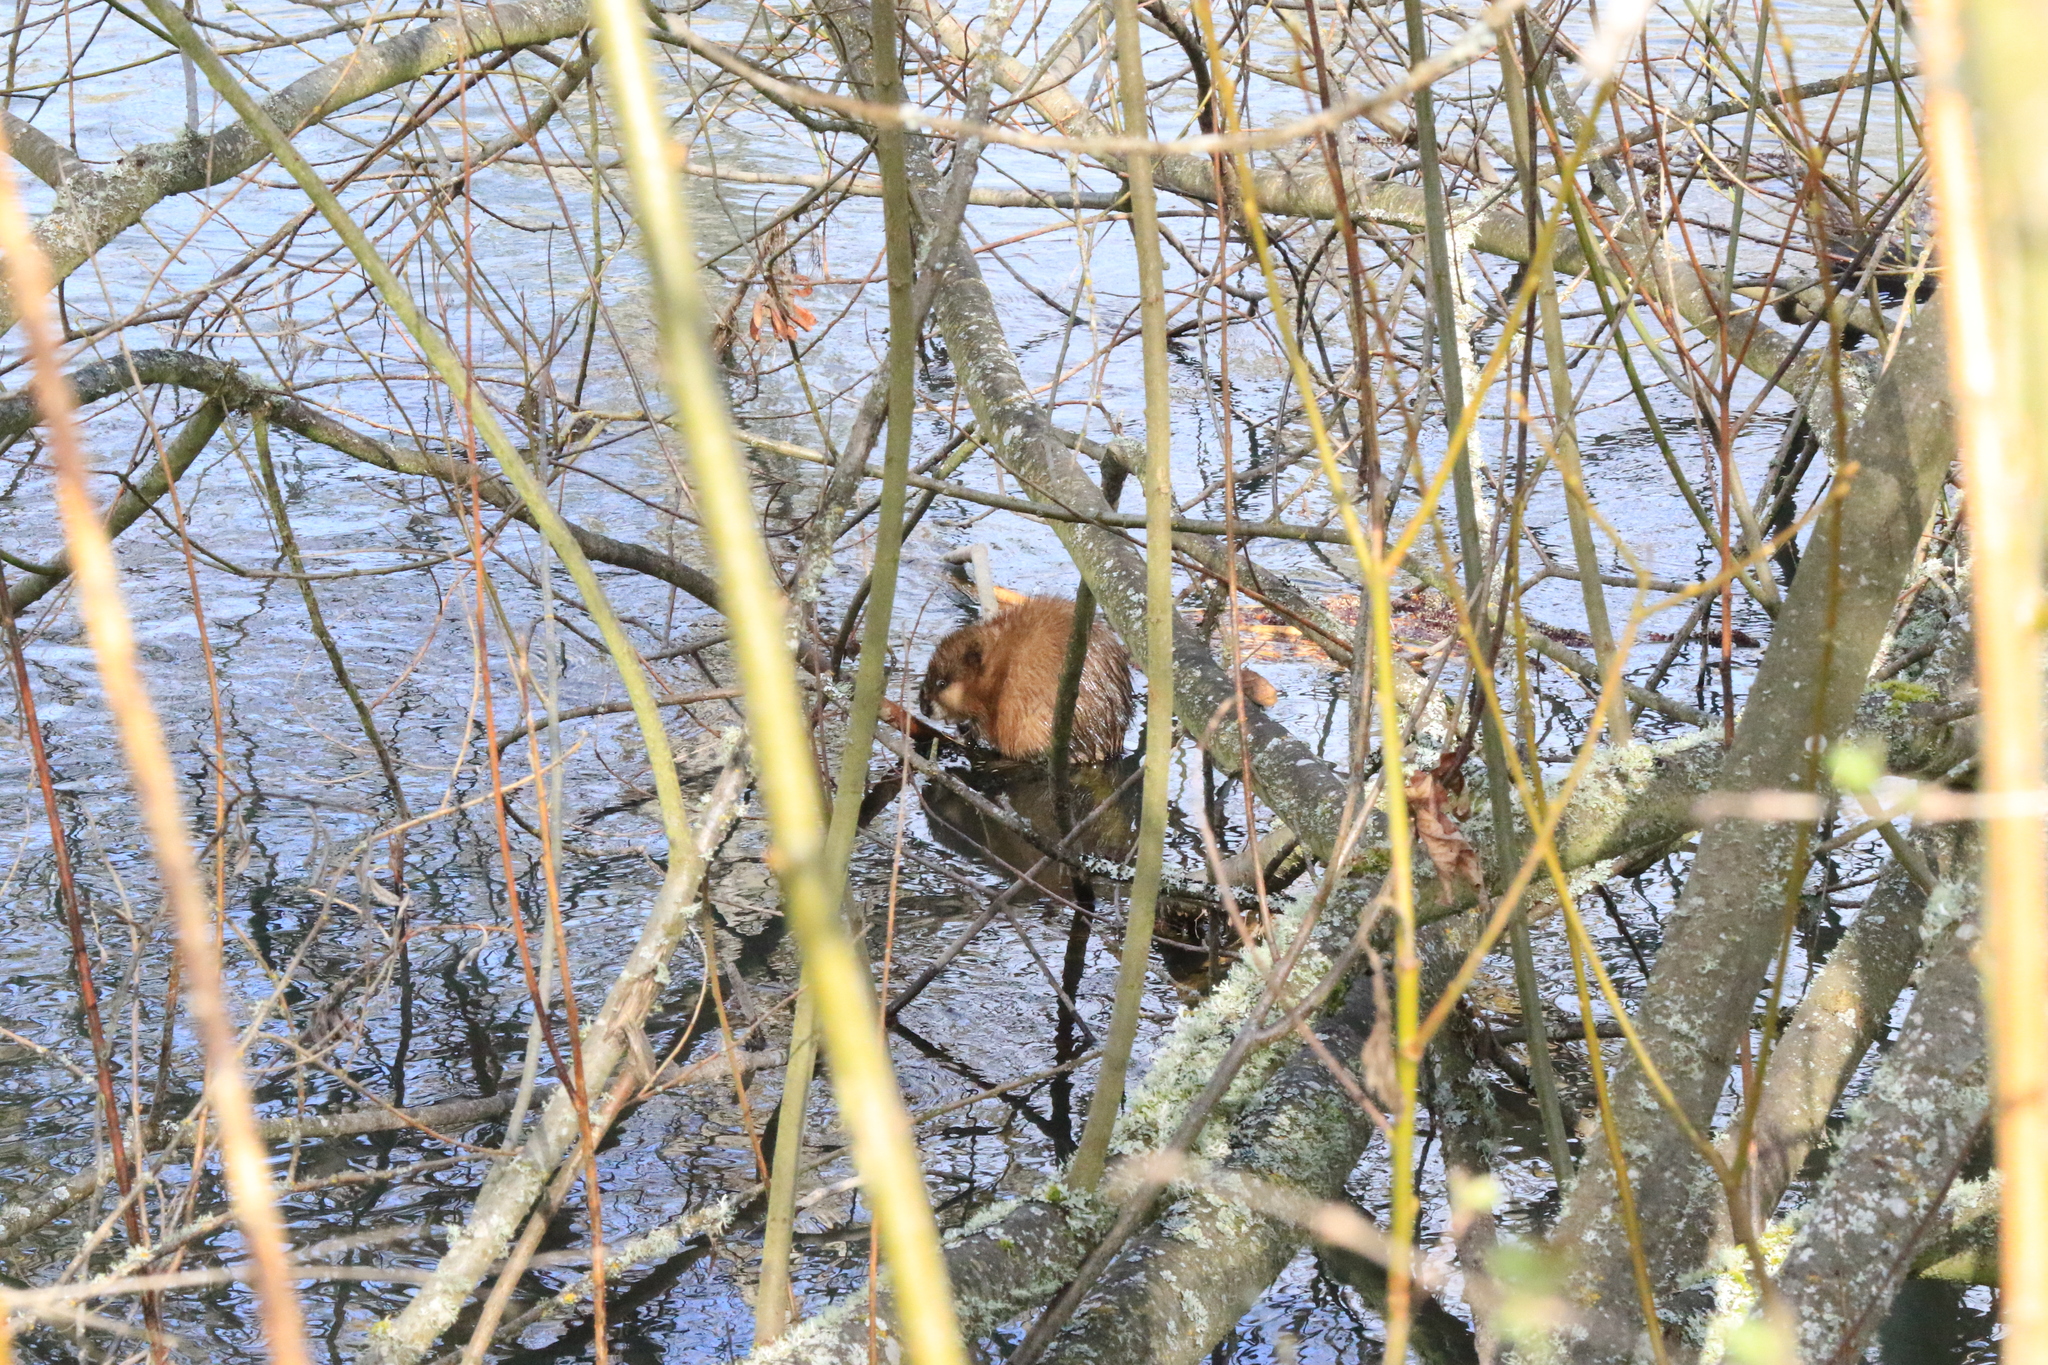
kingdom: Animalia
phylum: Chordata
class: Mammalia
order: Rodentia
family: Cricetidae
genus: Ondatra
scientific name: Ondatra zibethicus
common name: Muskrat
